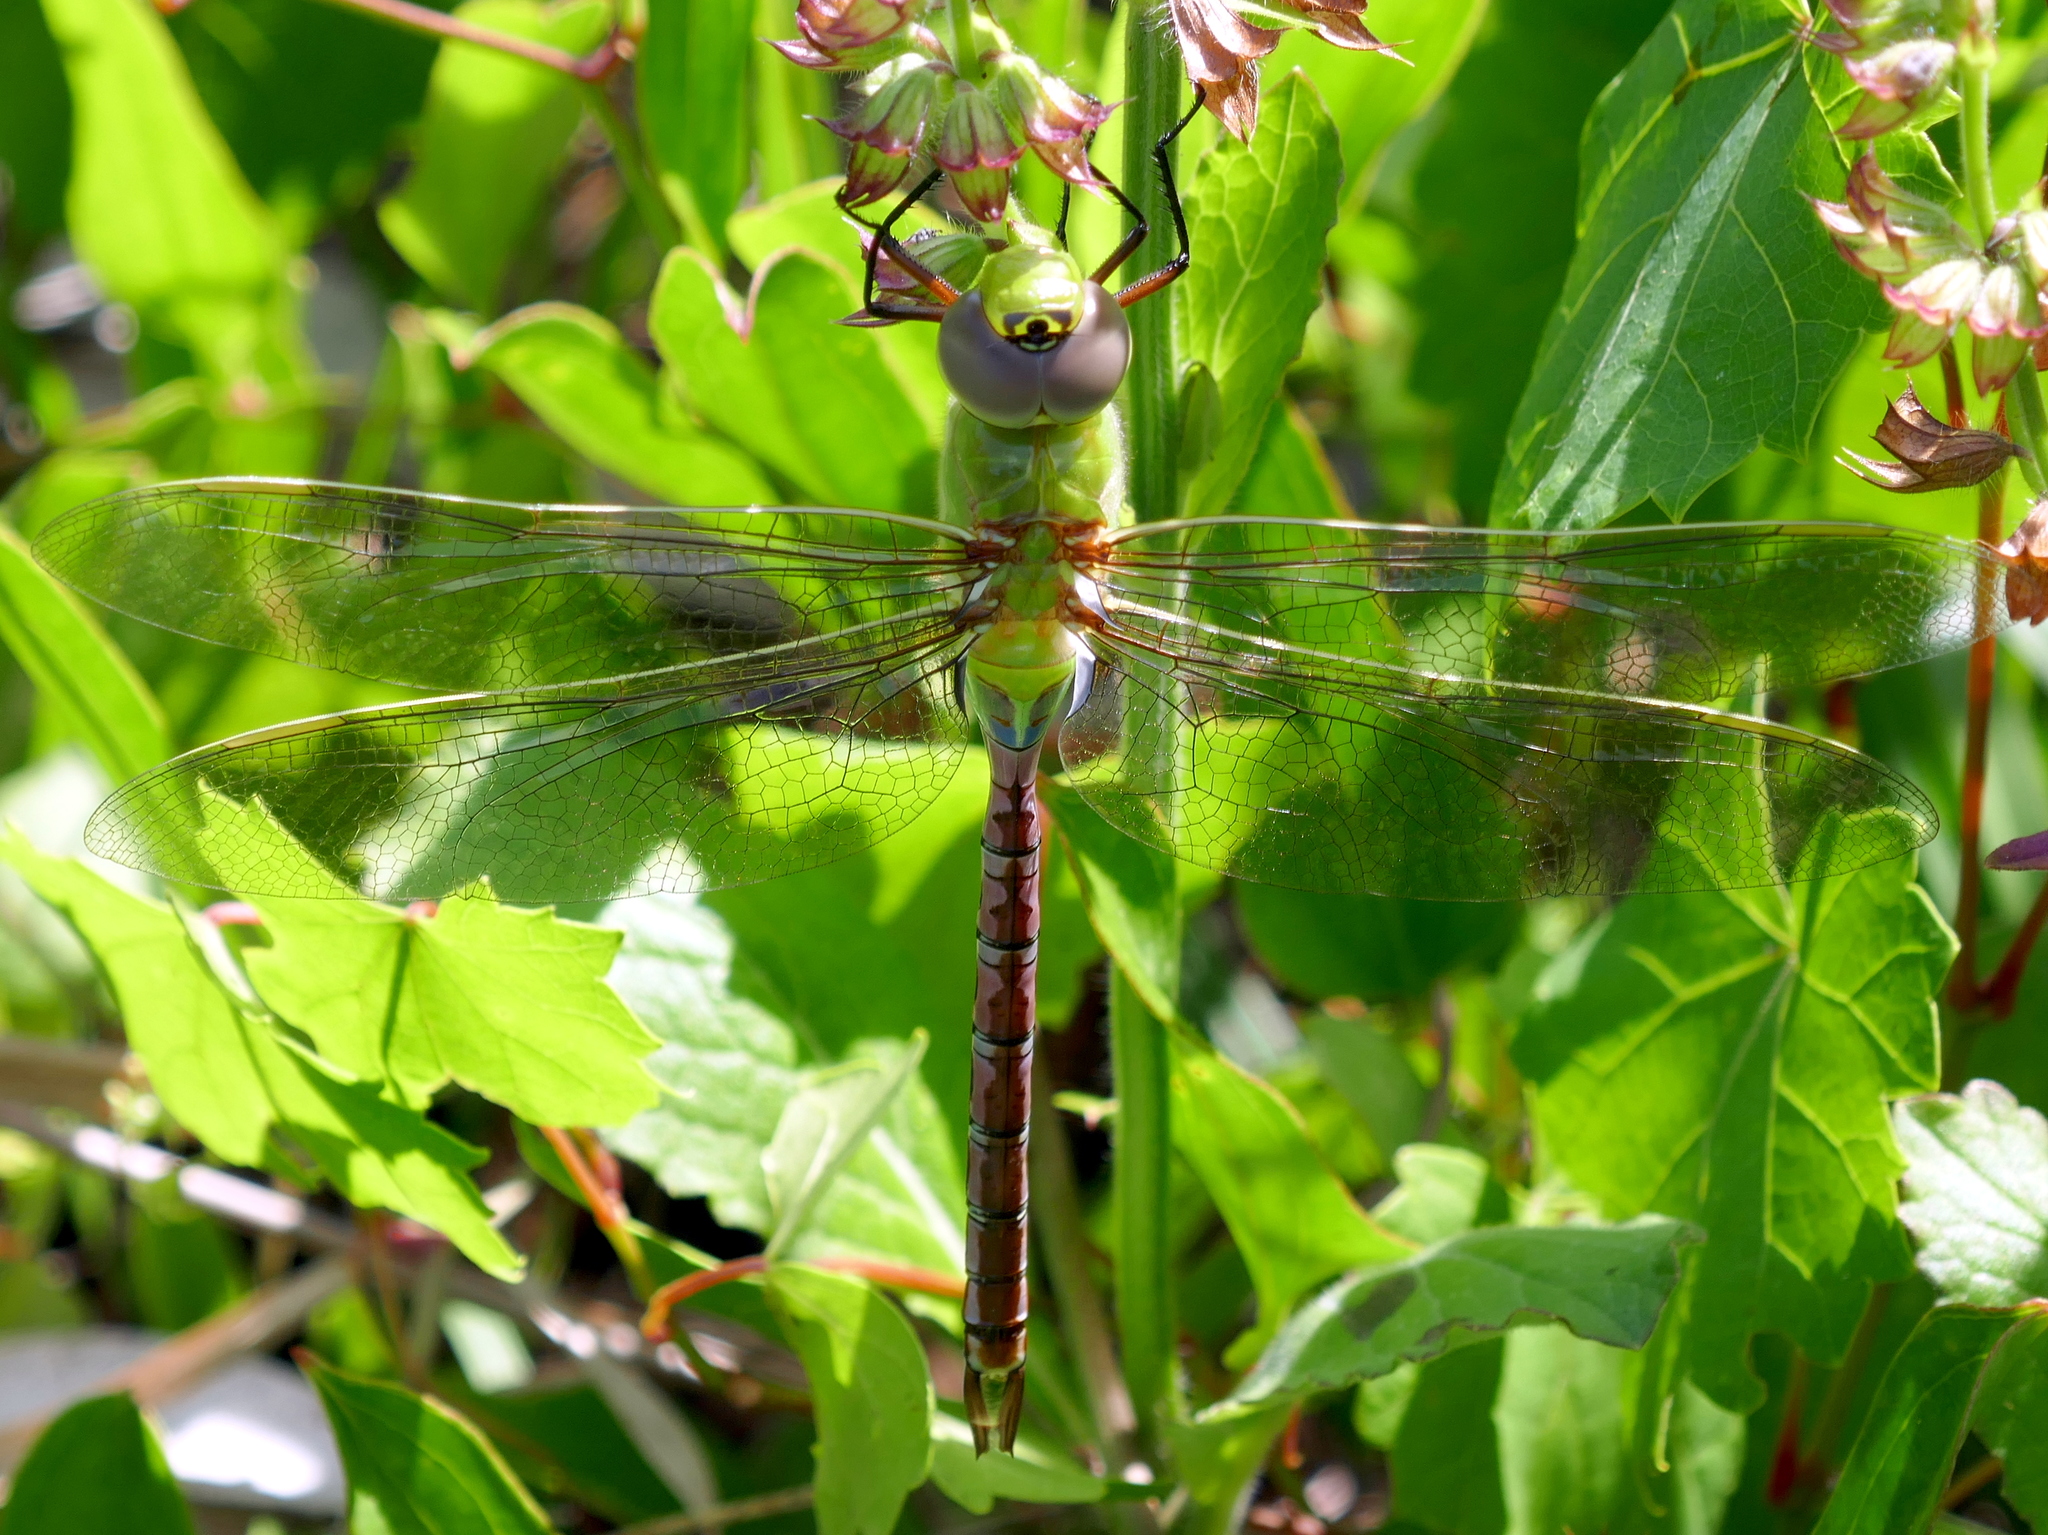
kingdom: Animalia
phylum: Arthropoda
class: Insecta
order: Odonata
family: Aeshnidae
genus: Anax
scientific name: Anax junius
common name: Common green darner
